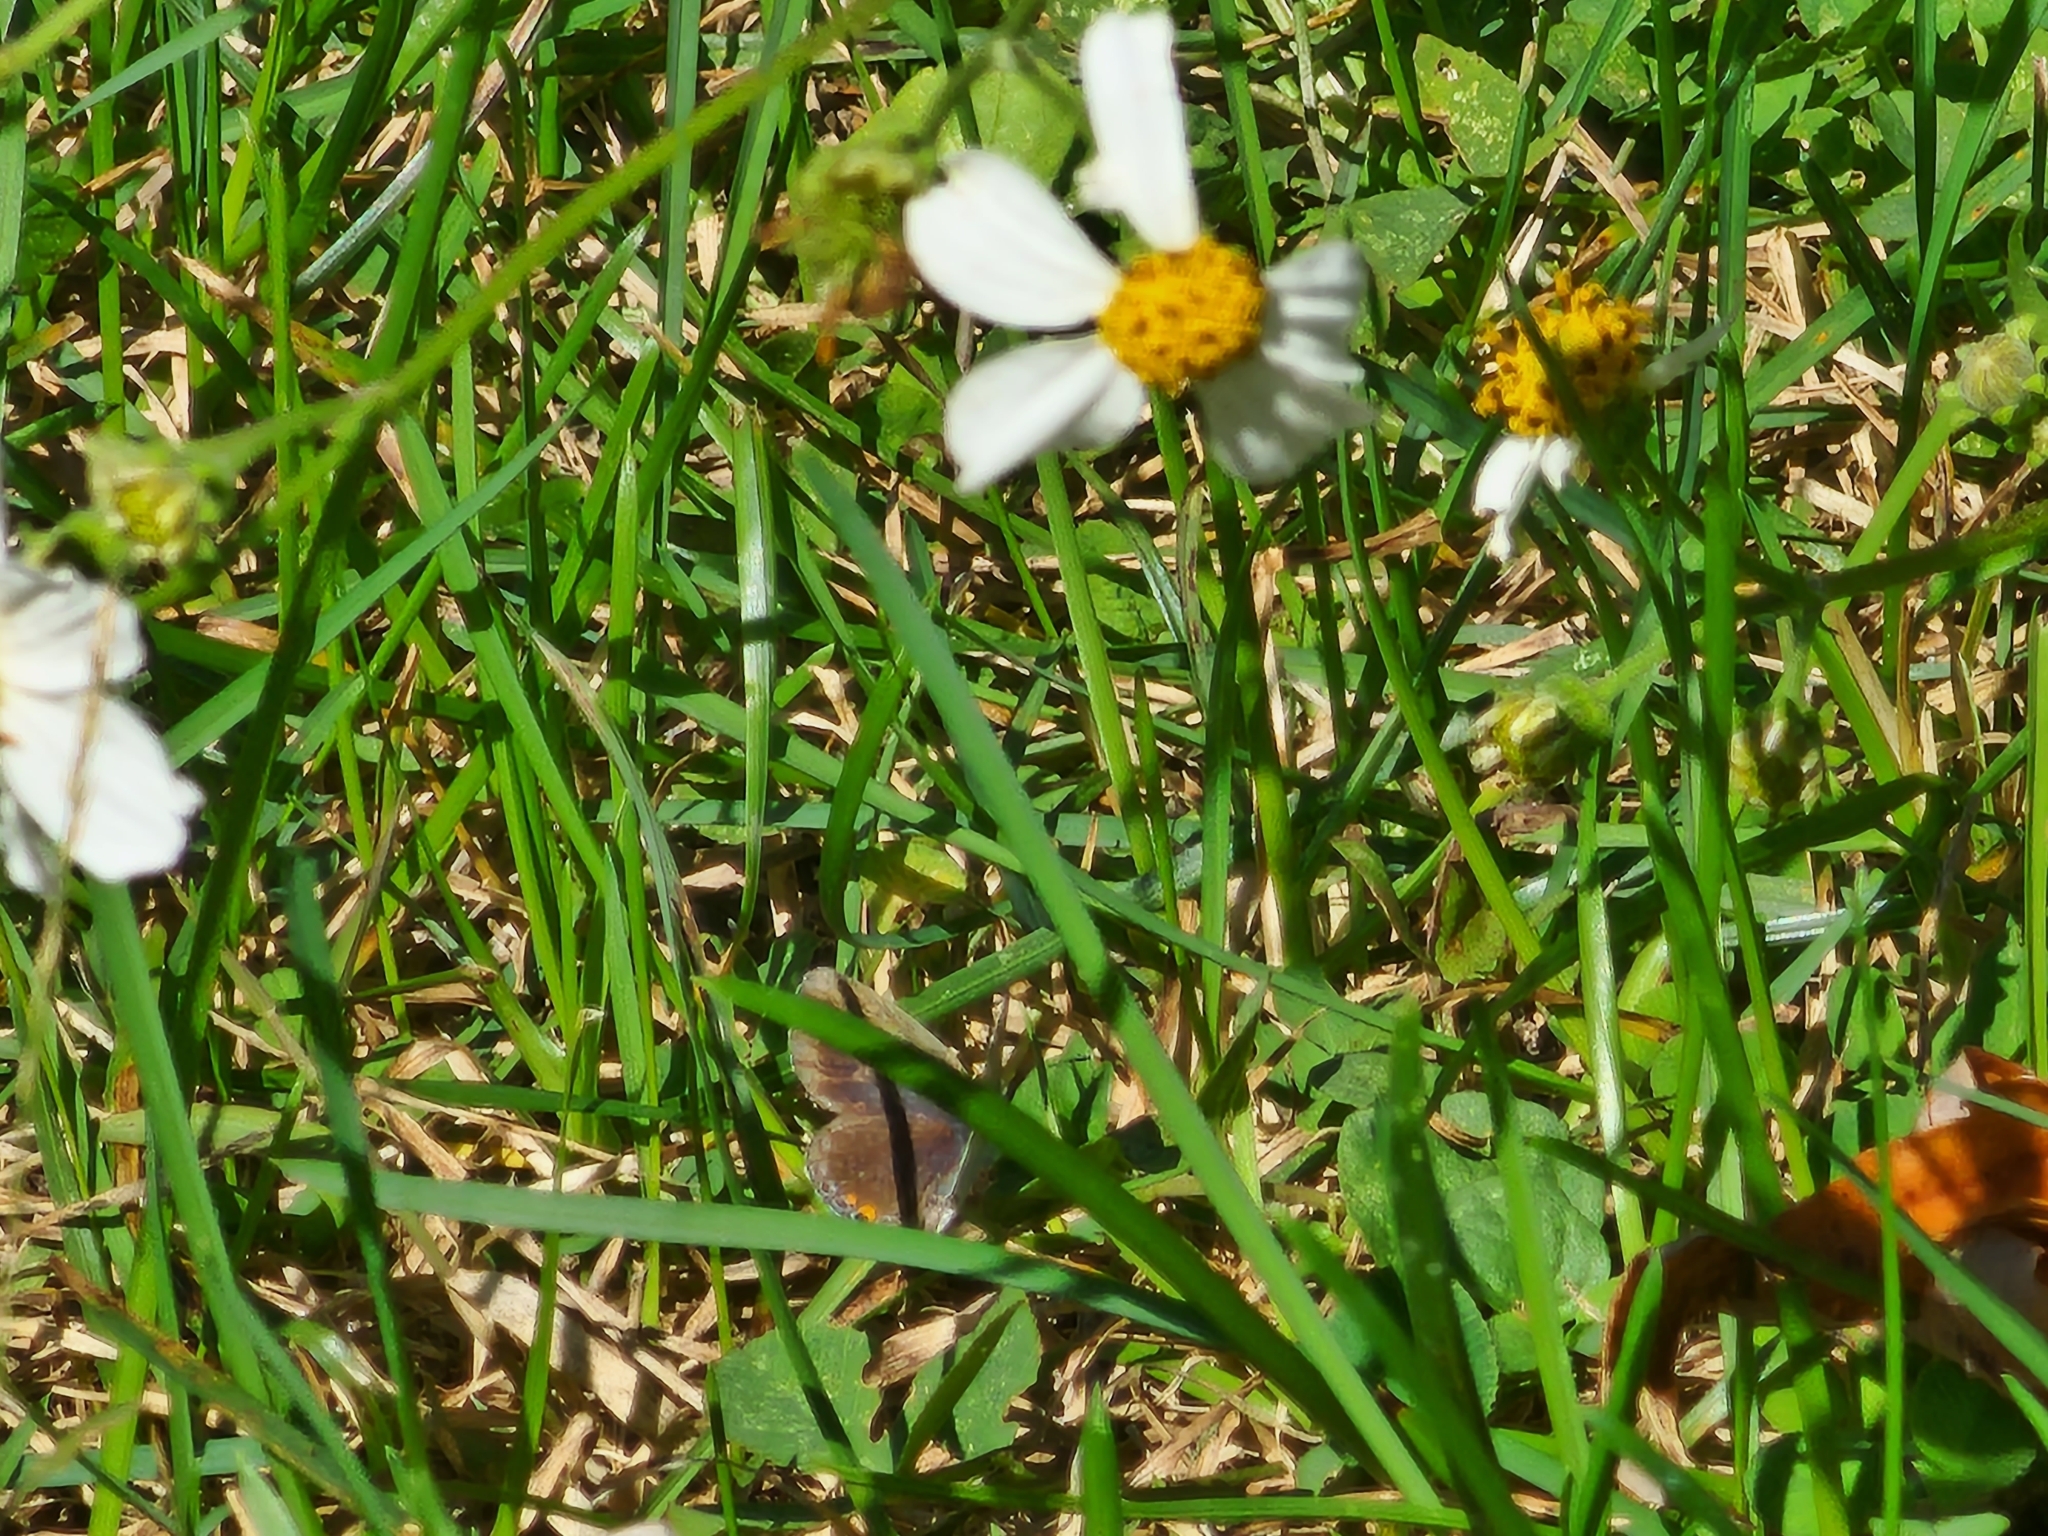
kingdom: Animalia
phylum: Arthropoda
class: Insecta
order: Lepidoptera
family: Lycaenidae
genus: Elkalyce
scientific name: Elkalyce comyntas
